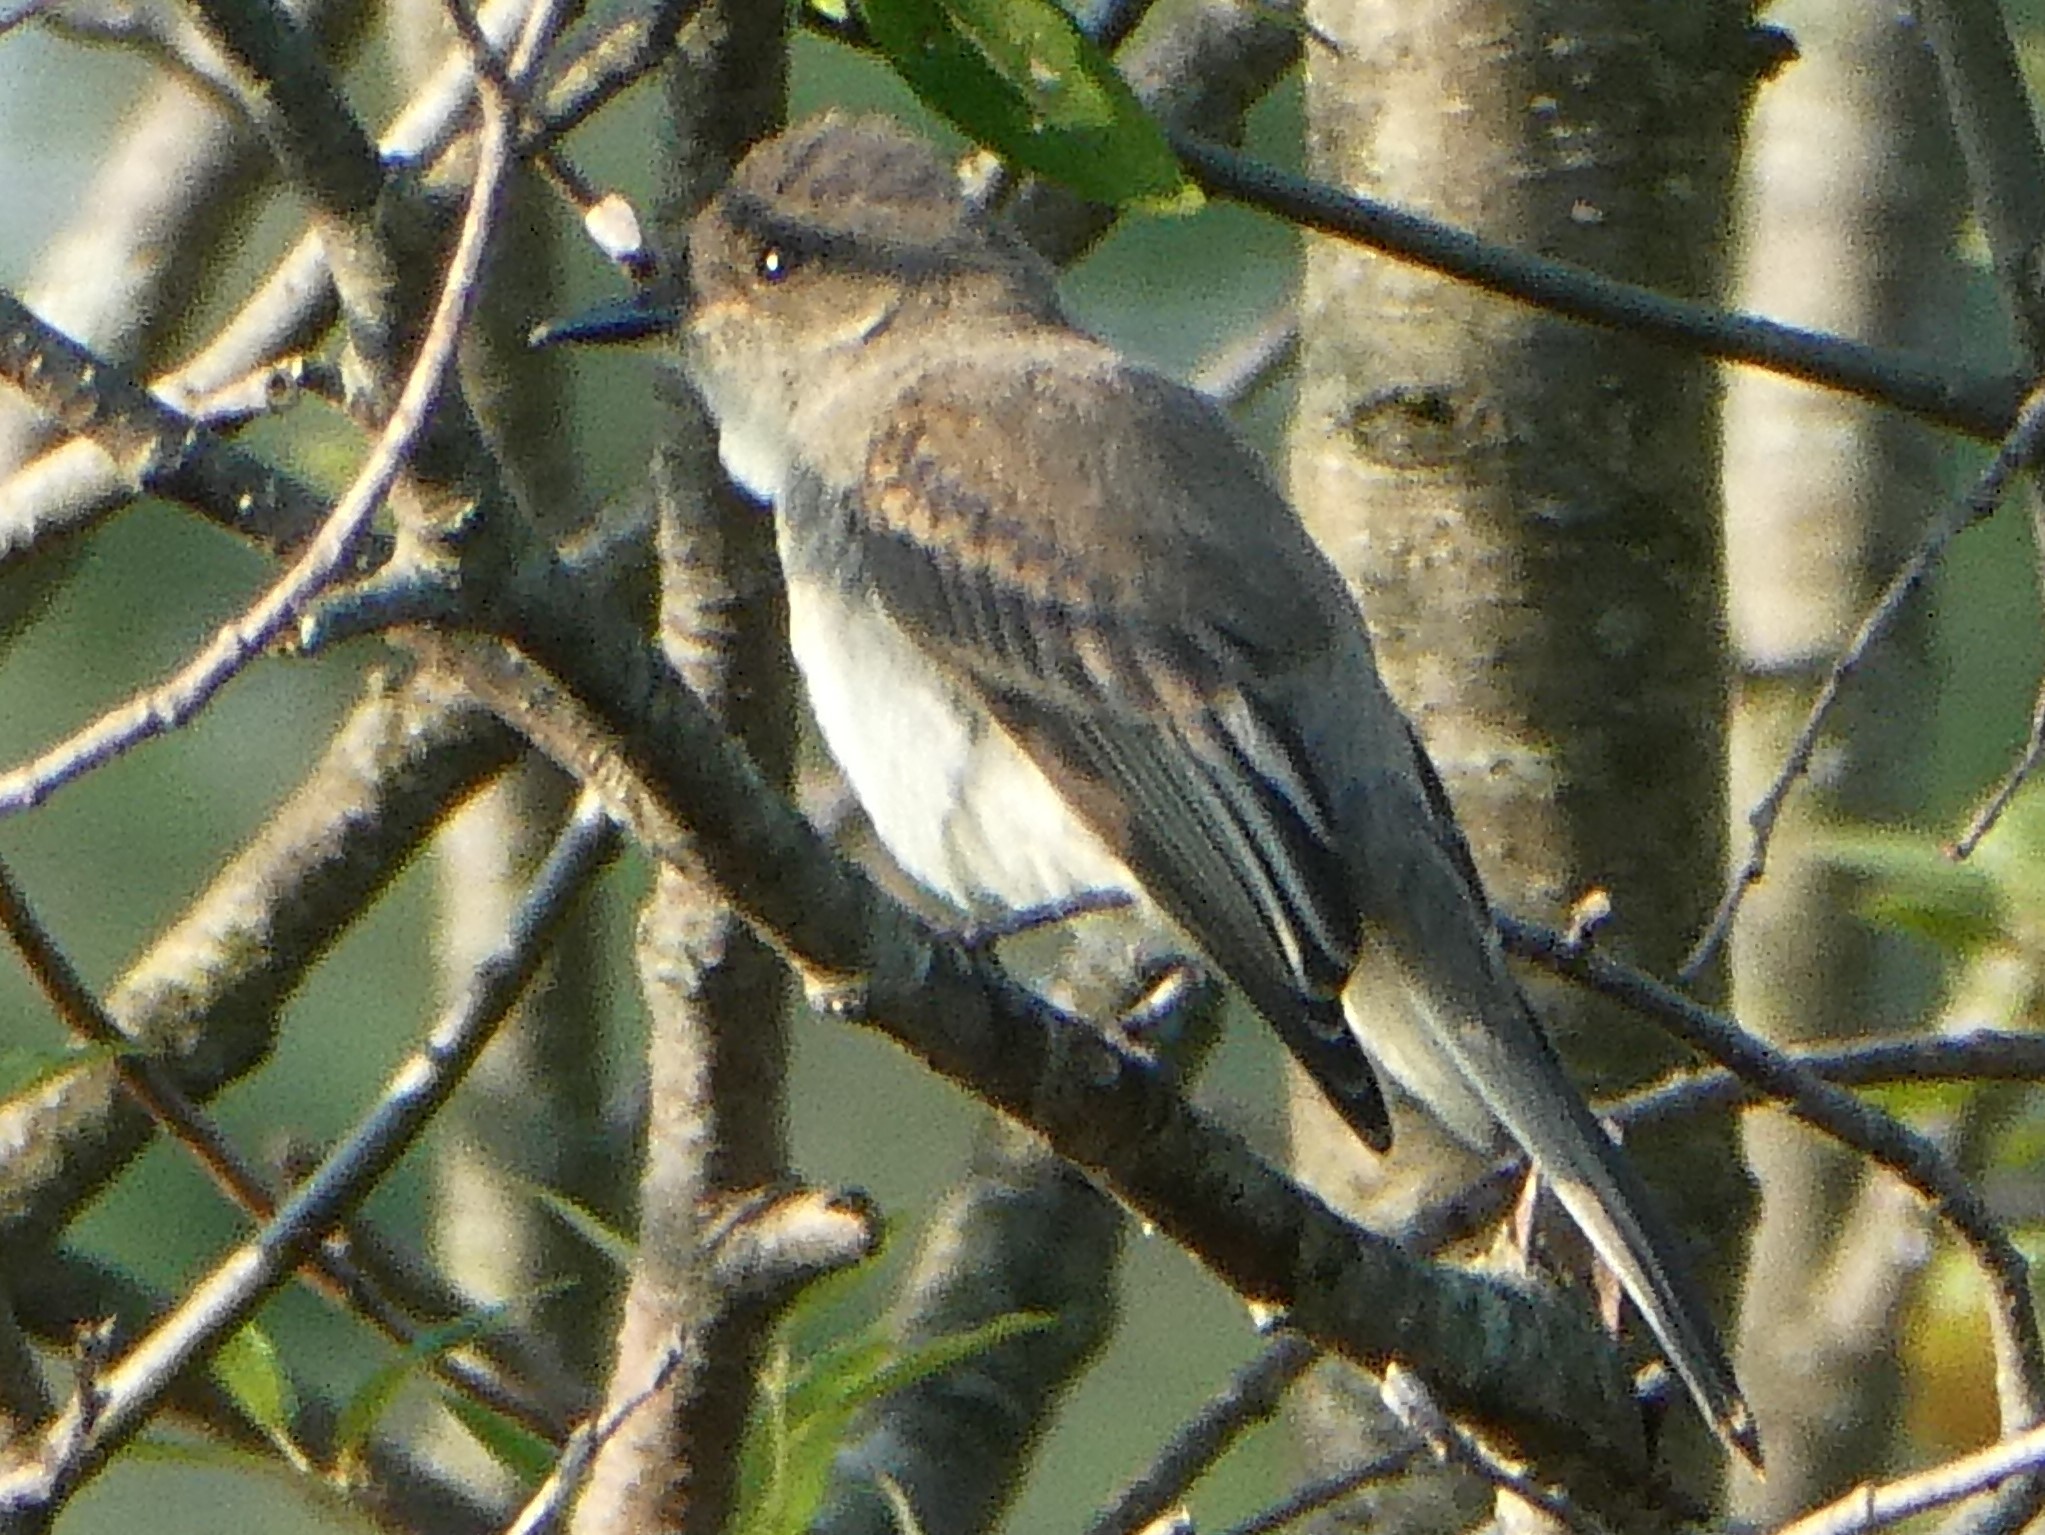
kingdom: Animalia
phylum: Chordata
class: Aves
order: Passeriformes
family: Tyrannidae
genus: Sayornis
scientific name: Sayornis phoebe
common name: Eastern phoebe
